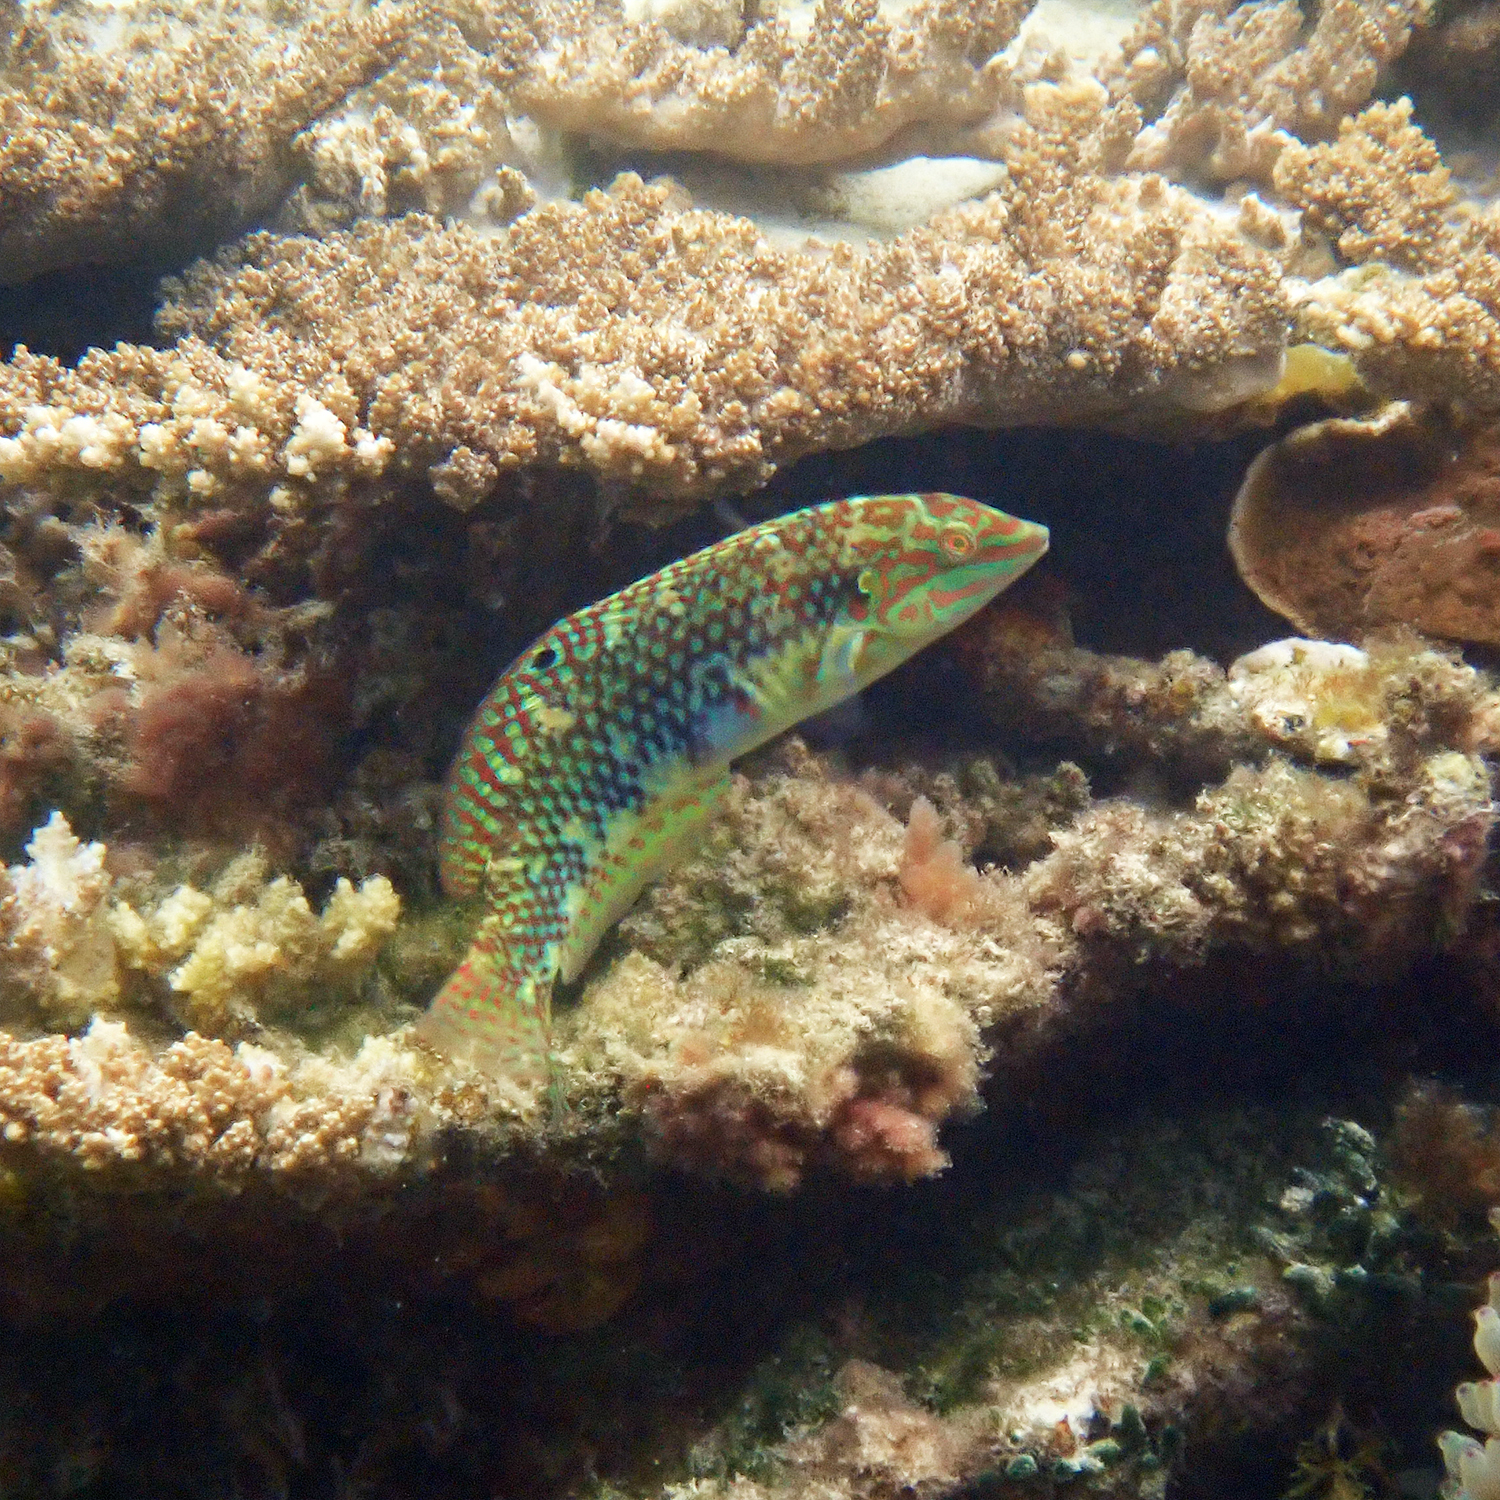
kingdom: Animalia
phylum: Chordata
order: Perciformes
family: Labridae
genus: Halichoeres
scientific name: Halichoeres margaritaceus
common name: Pink-belly wrasse
